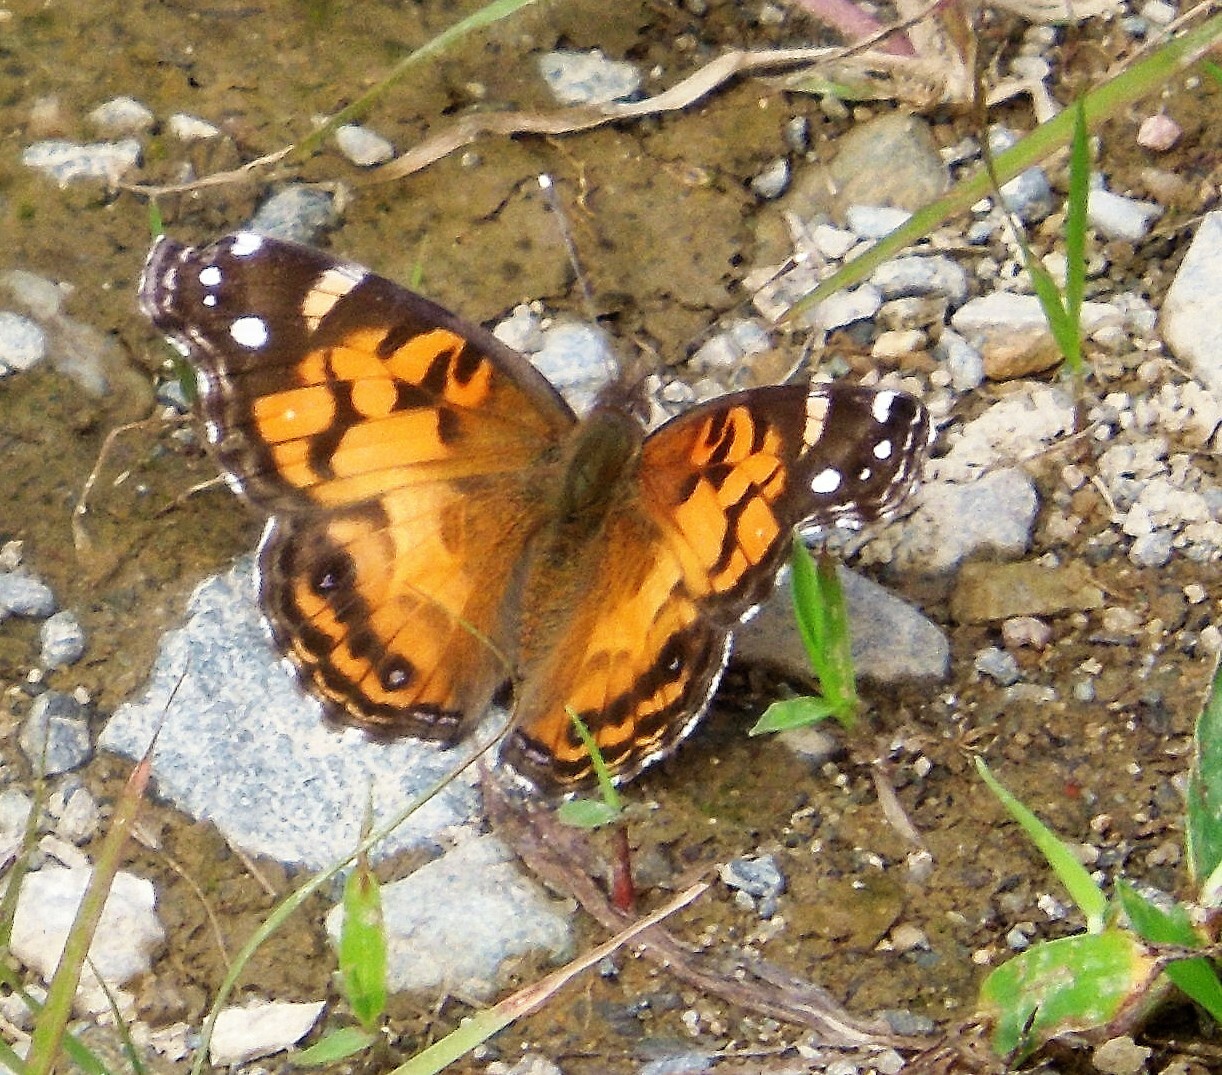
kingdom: Animalia
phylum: Arthropoda
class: Insecta
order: Lepidoptera
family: Nymphalidae
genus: Vanessa
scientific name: Vanessa virginiensis
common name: American lady
